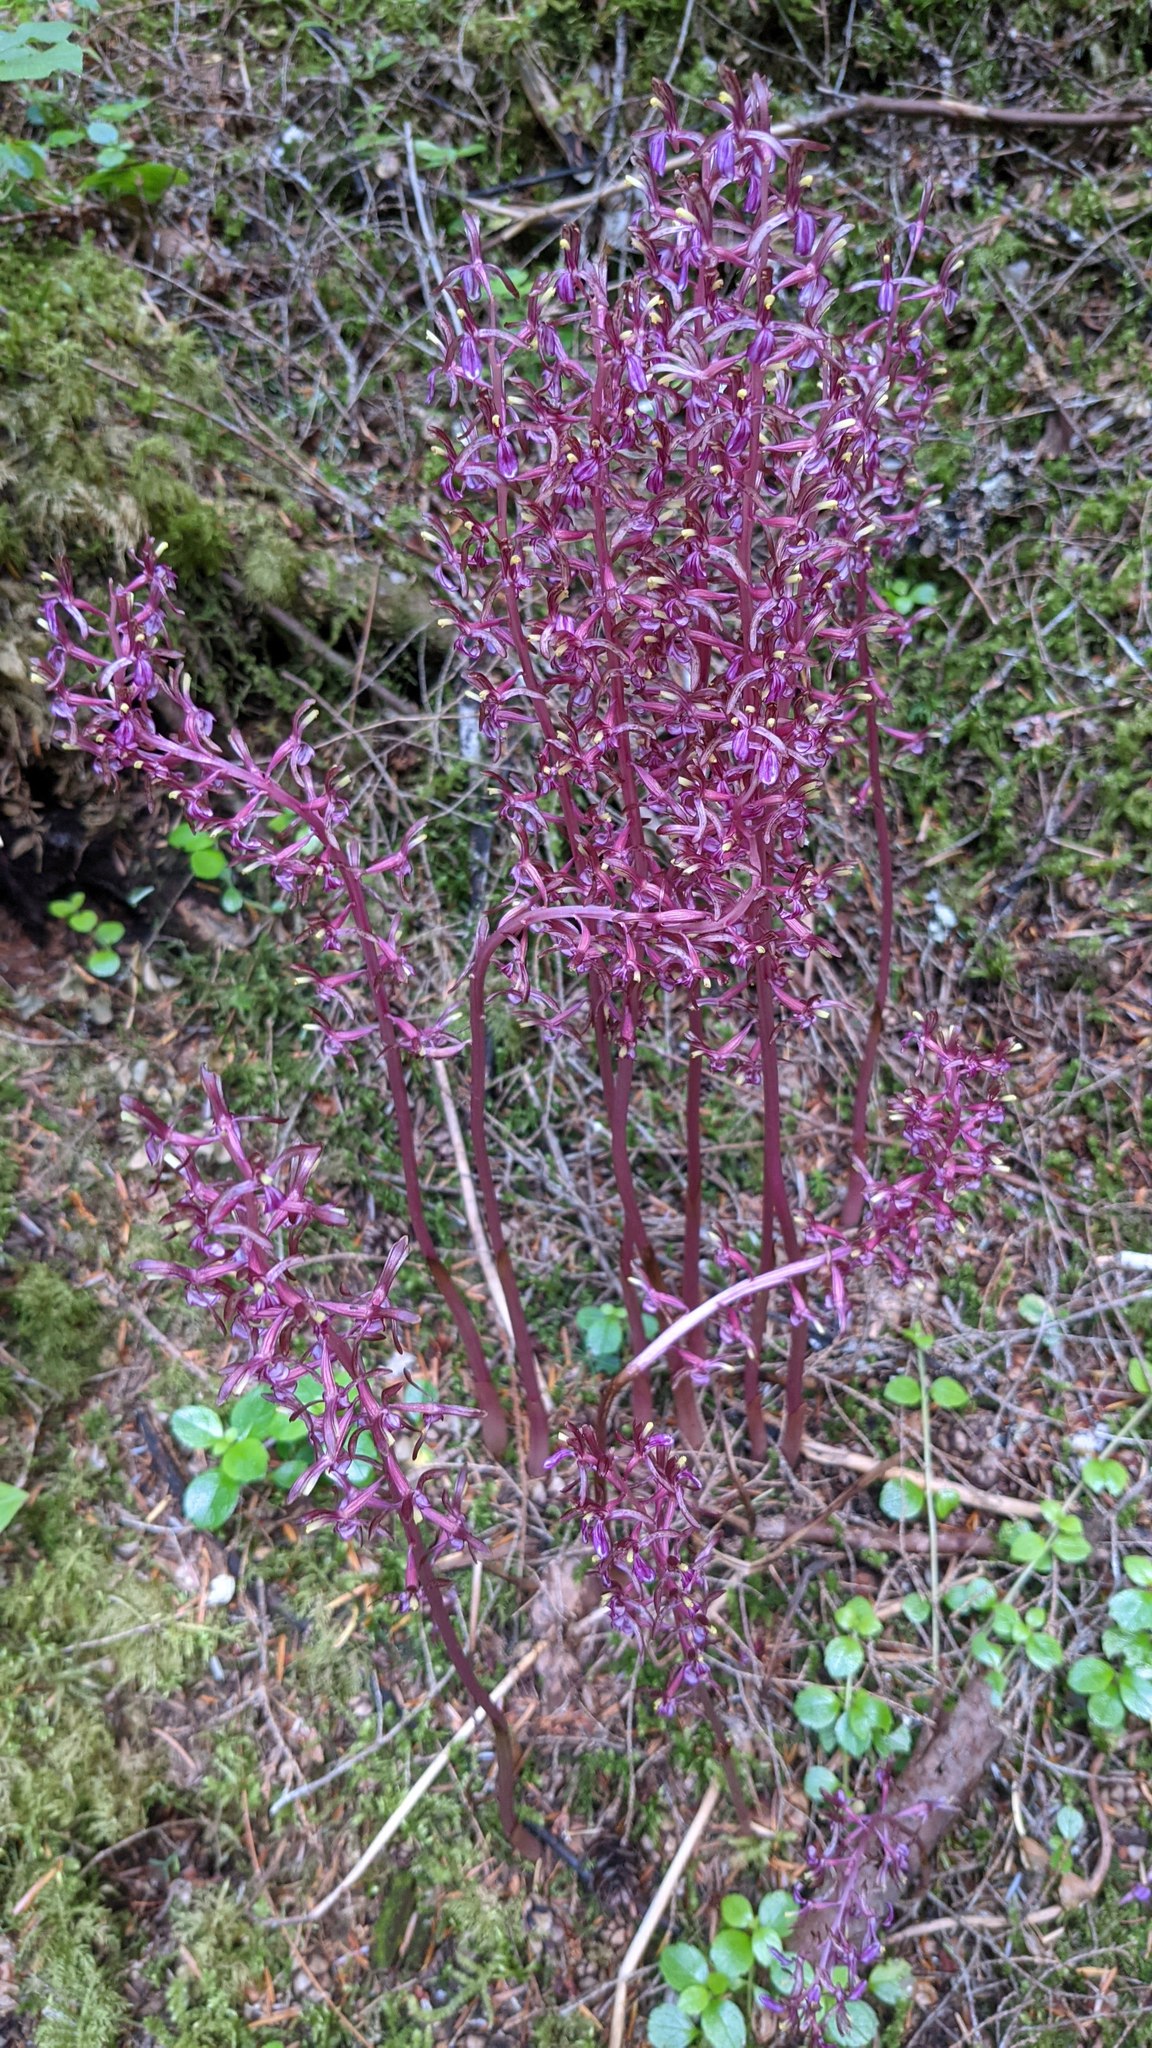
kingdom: Plantae
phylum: Tracheophyta
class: Liliopsida
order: Asparagales
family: Orchidaceae
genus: Corallorhiza
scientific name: Corallorhiza mertensiana
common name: Pacific coralroot
